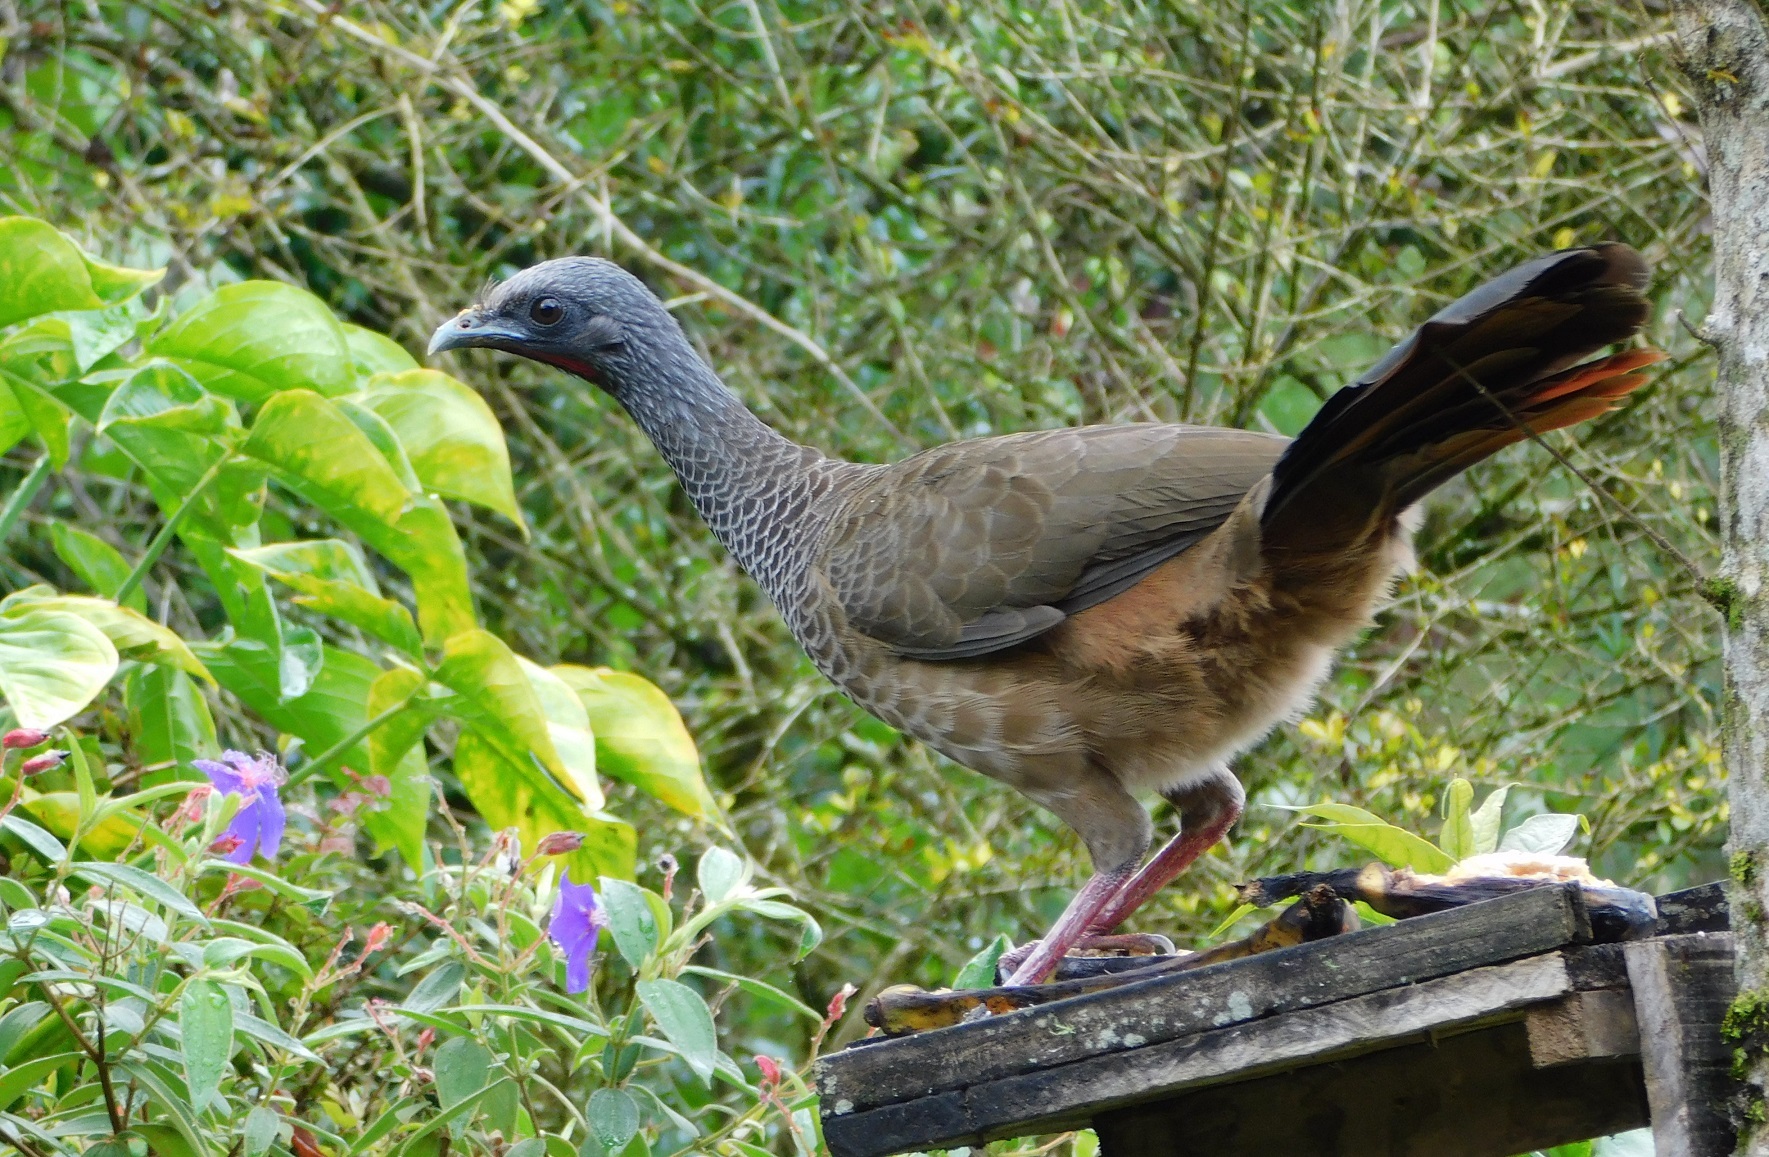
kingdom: Animalia
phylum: Chordata
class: Aves
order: Galliformes
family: Cracidae
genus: Ortalis
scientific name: Ortalis columbiana
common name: Colombian chachalaca
